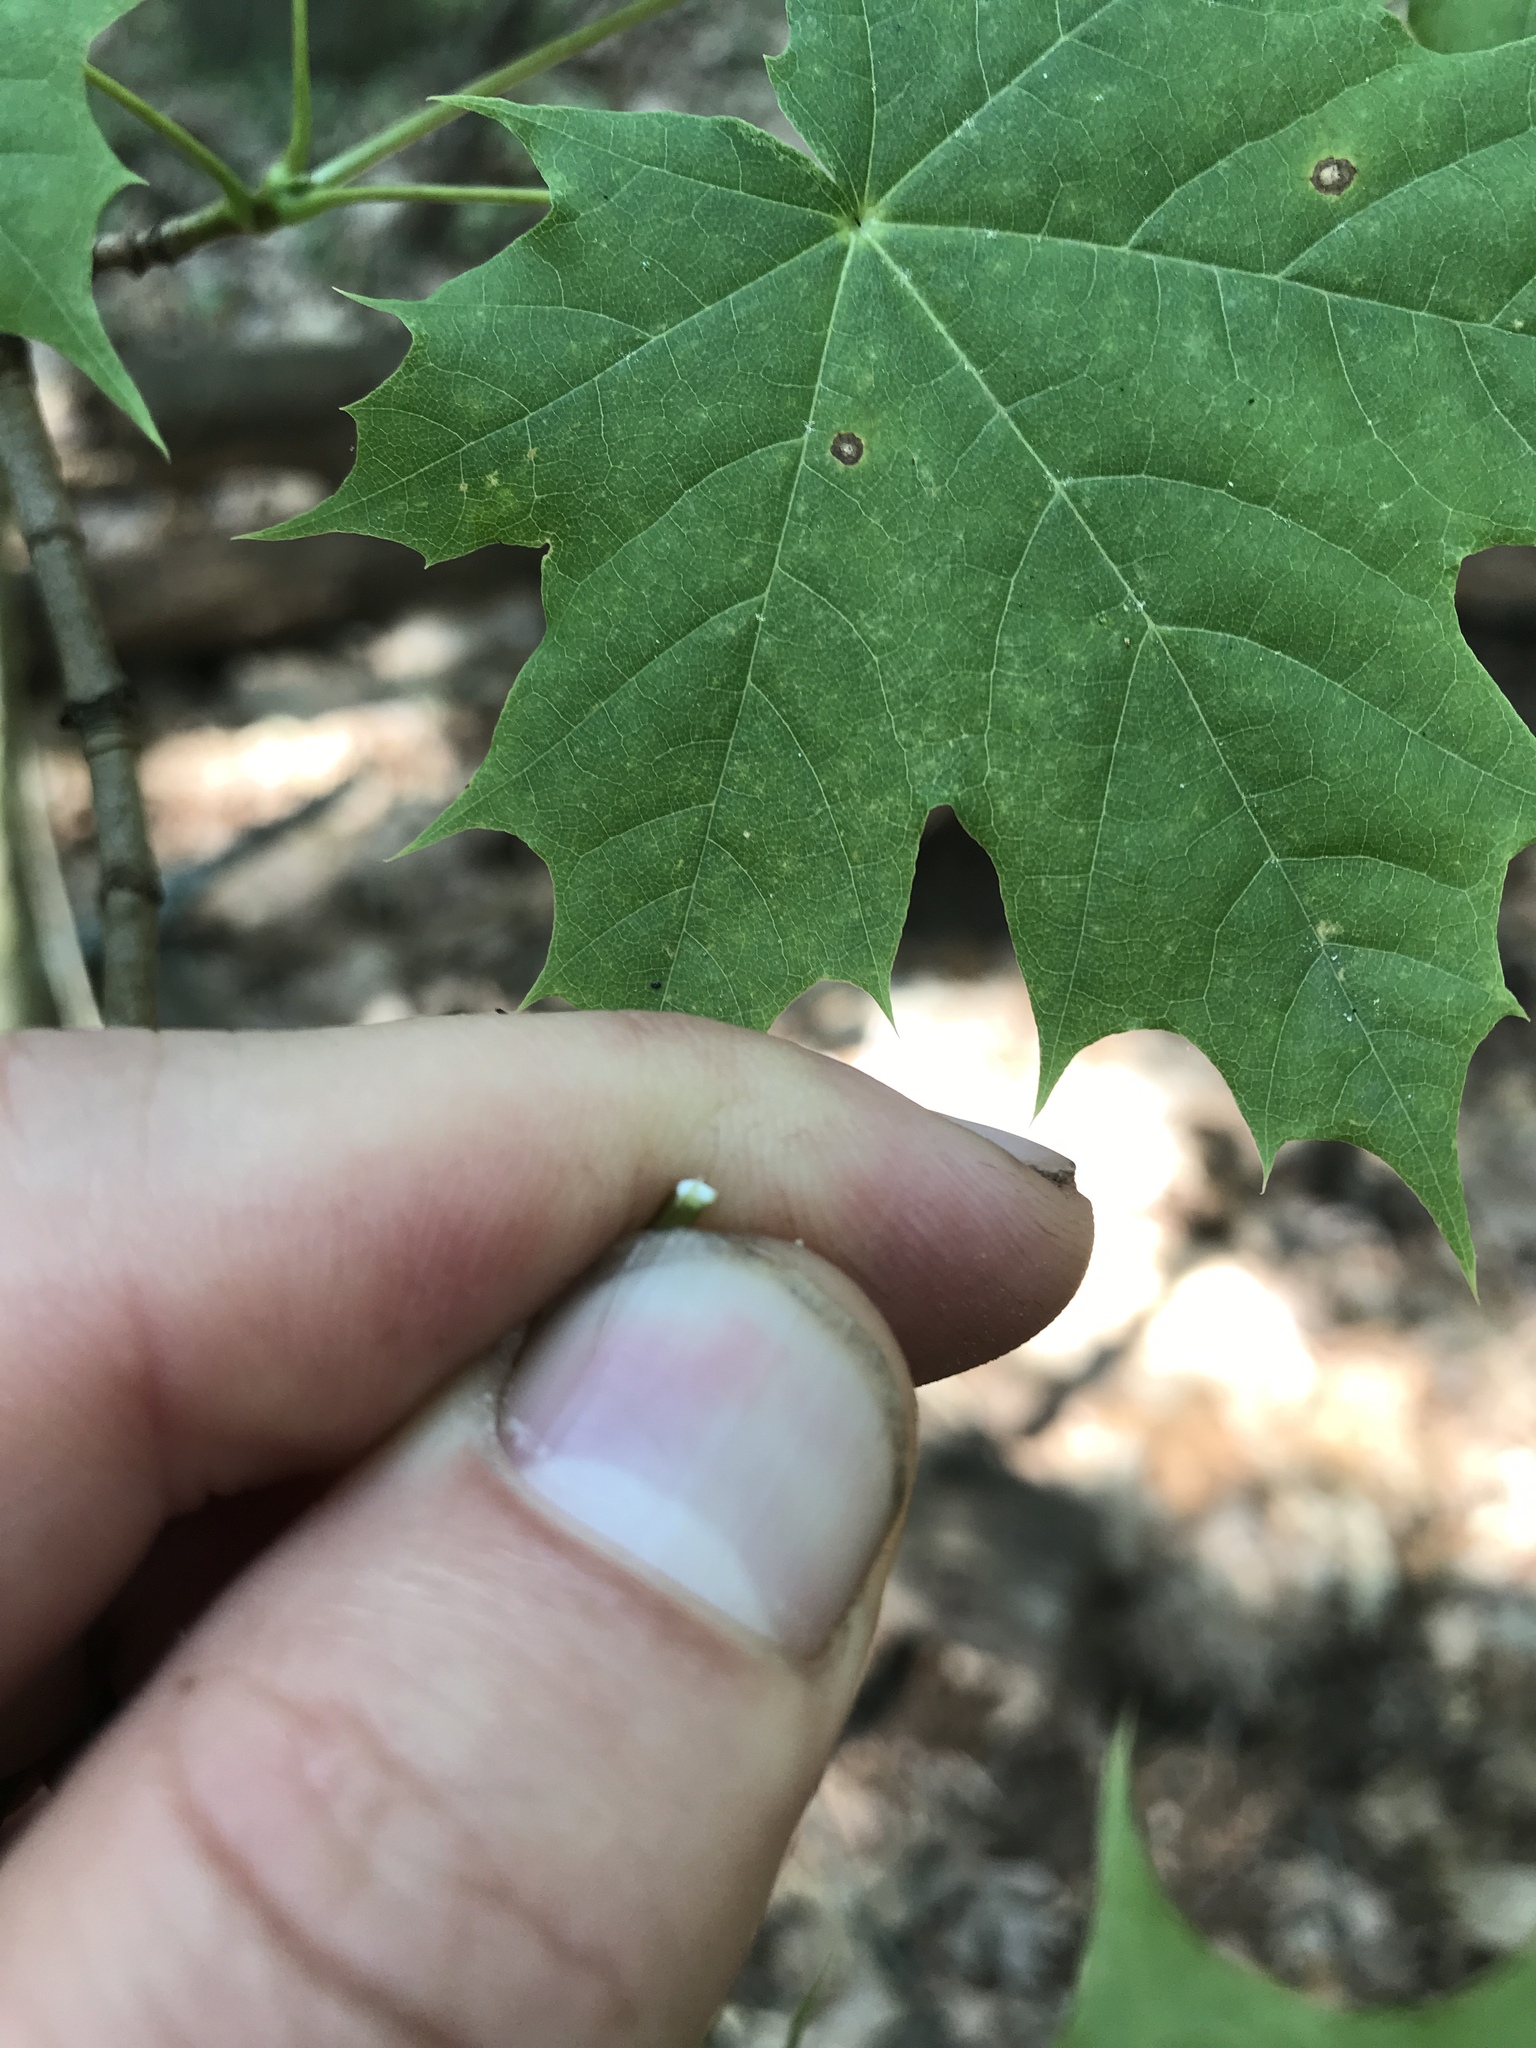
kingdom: Plantae
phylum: Tracheophyta
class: Magnoliopsida
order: Sapindales
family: Sapindaceae
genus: Acer
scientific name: Acer platanoides
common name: Norway maple
